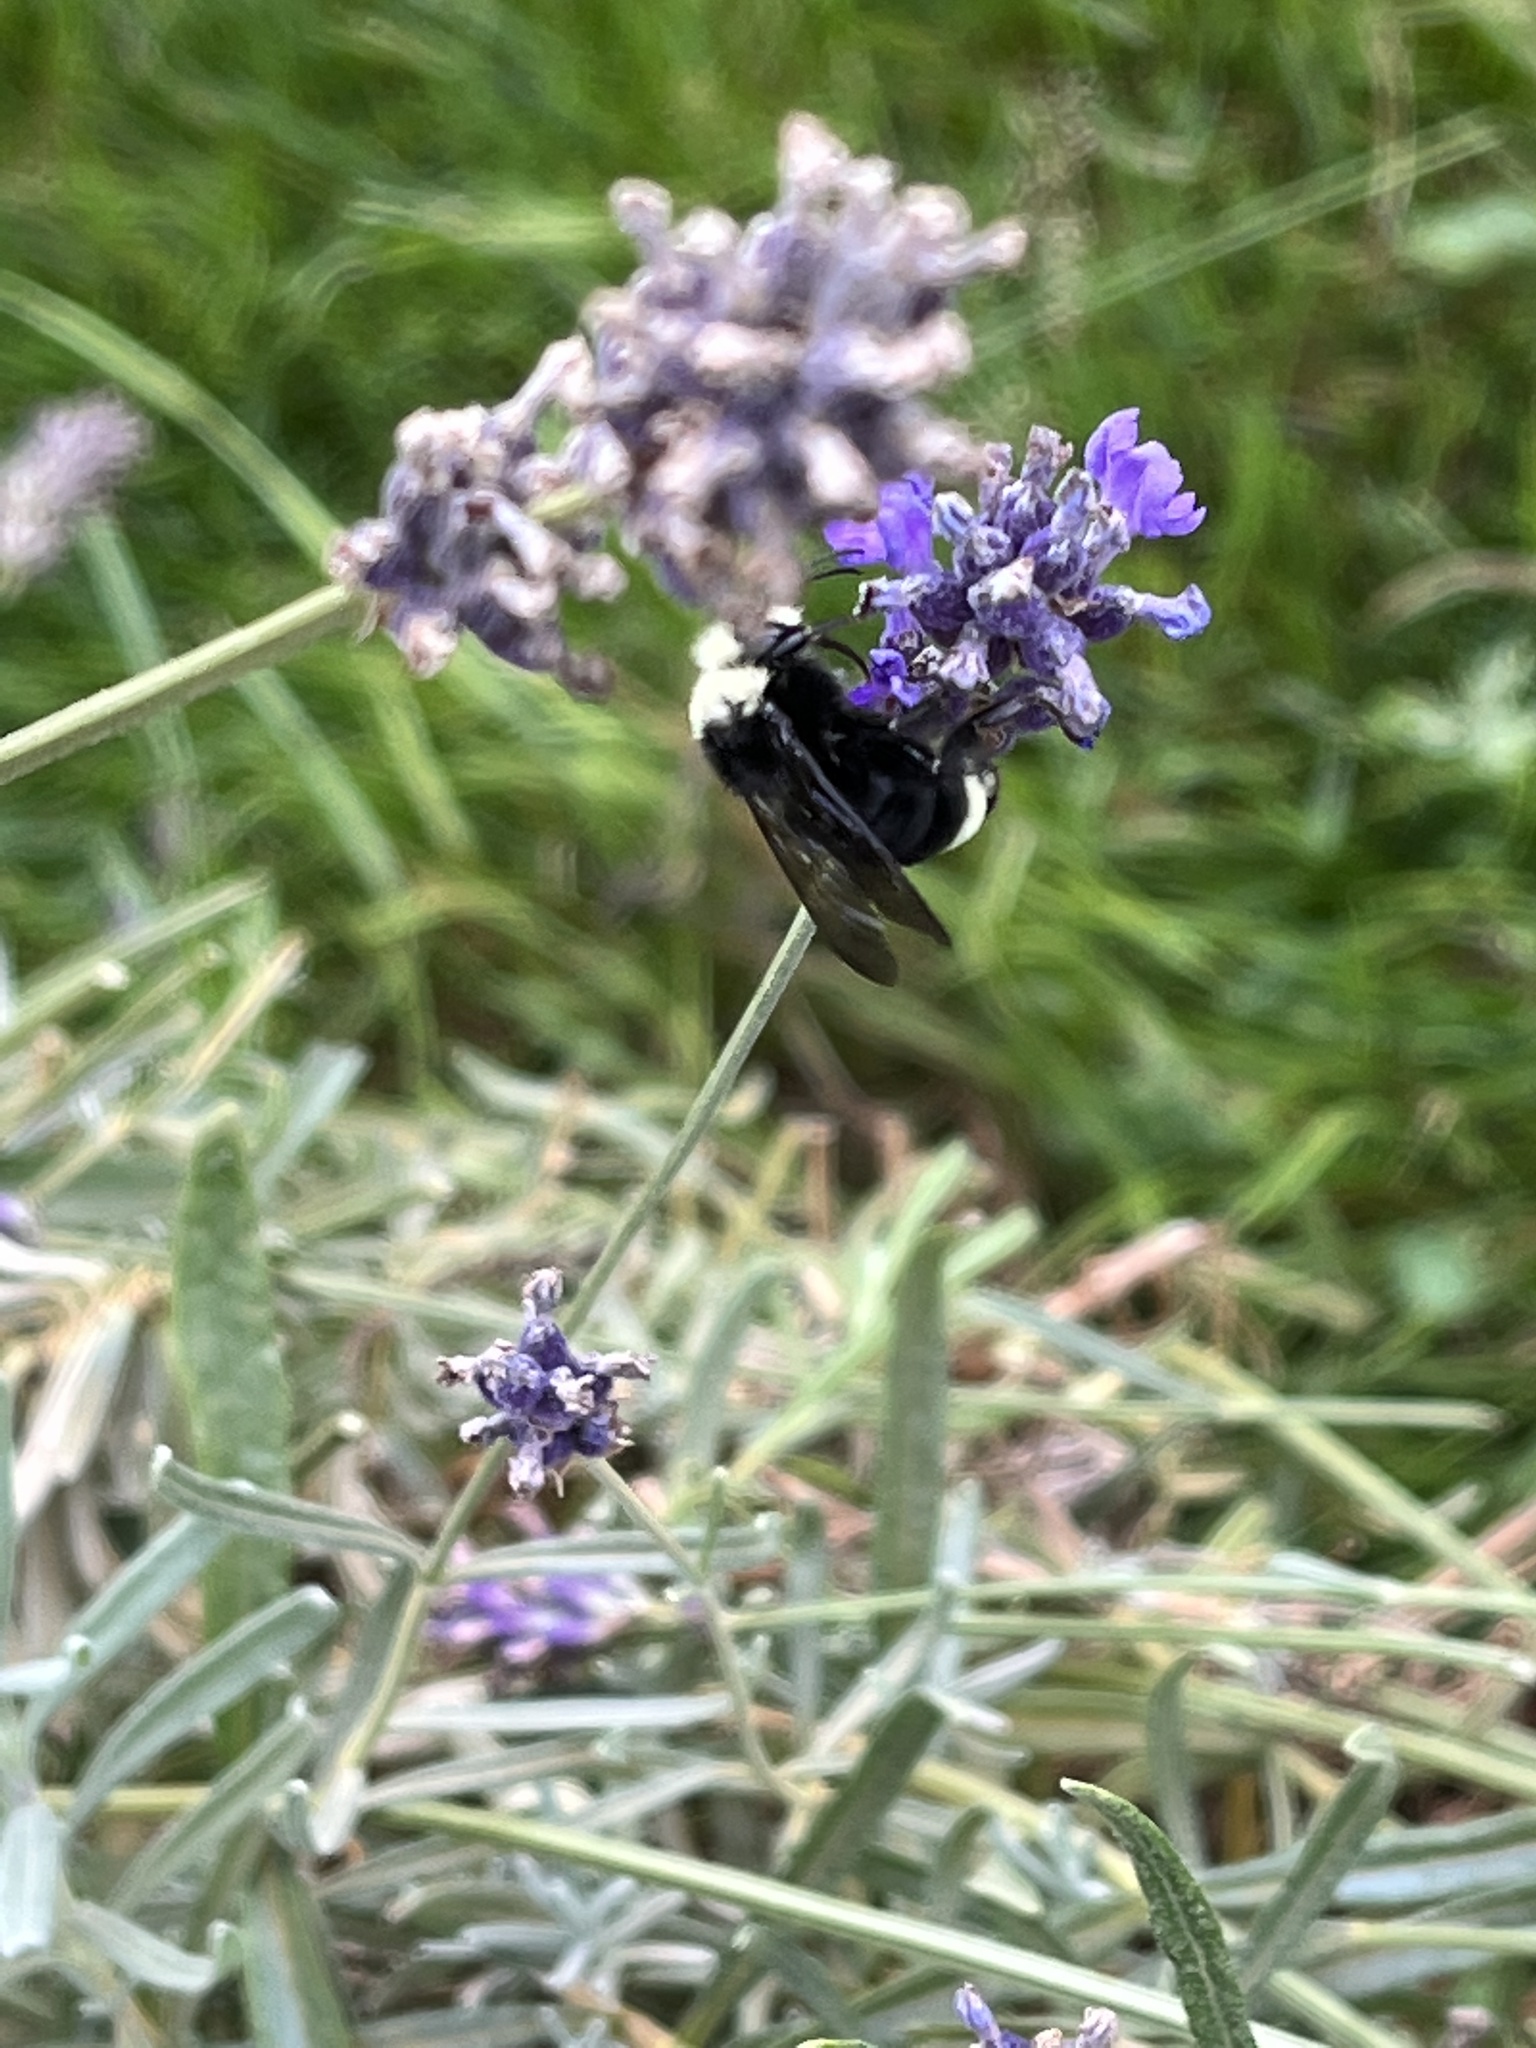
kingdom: Animalia
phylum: Arthropoda
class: Insecta
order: Hymenoptera
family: Apidae
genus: Bombus
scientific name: Bombus vosnesenskii
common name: Vosnesensky bumble bee
